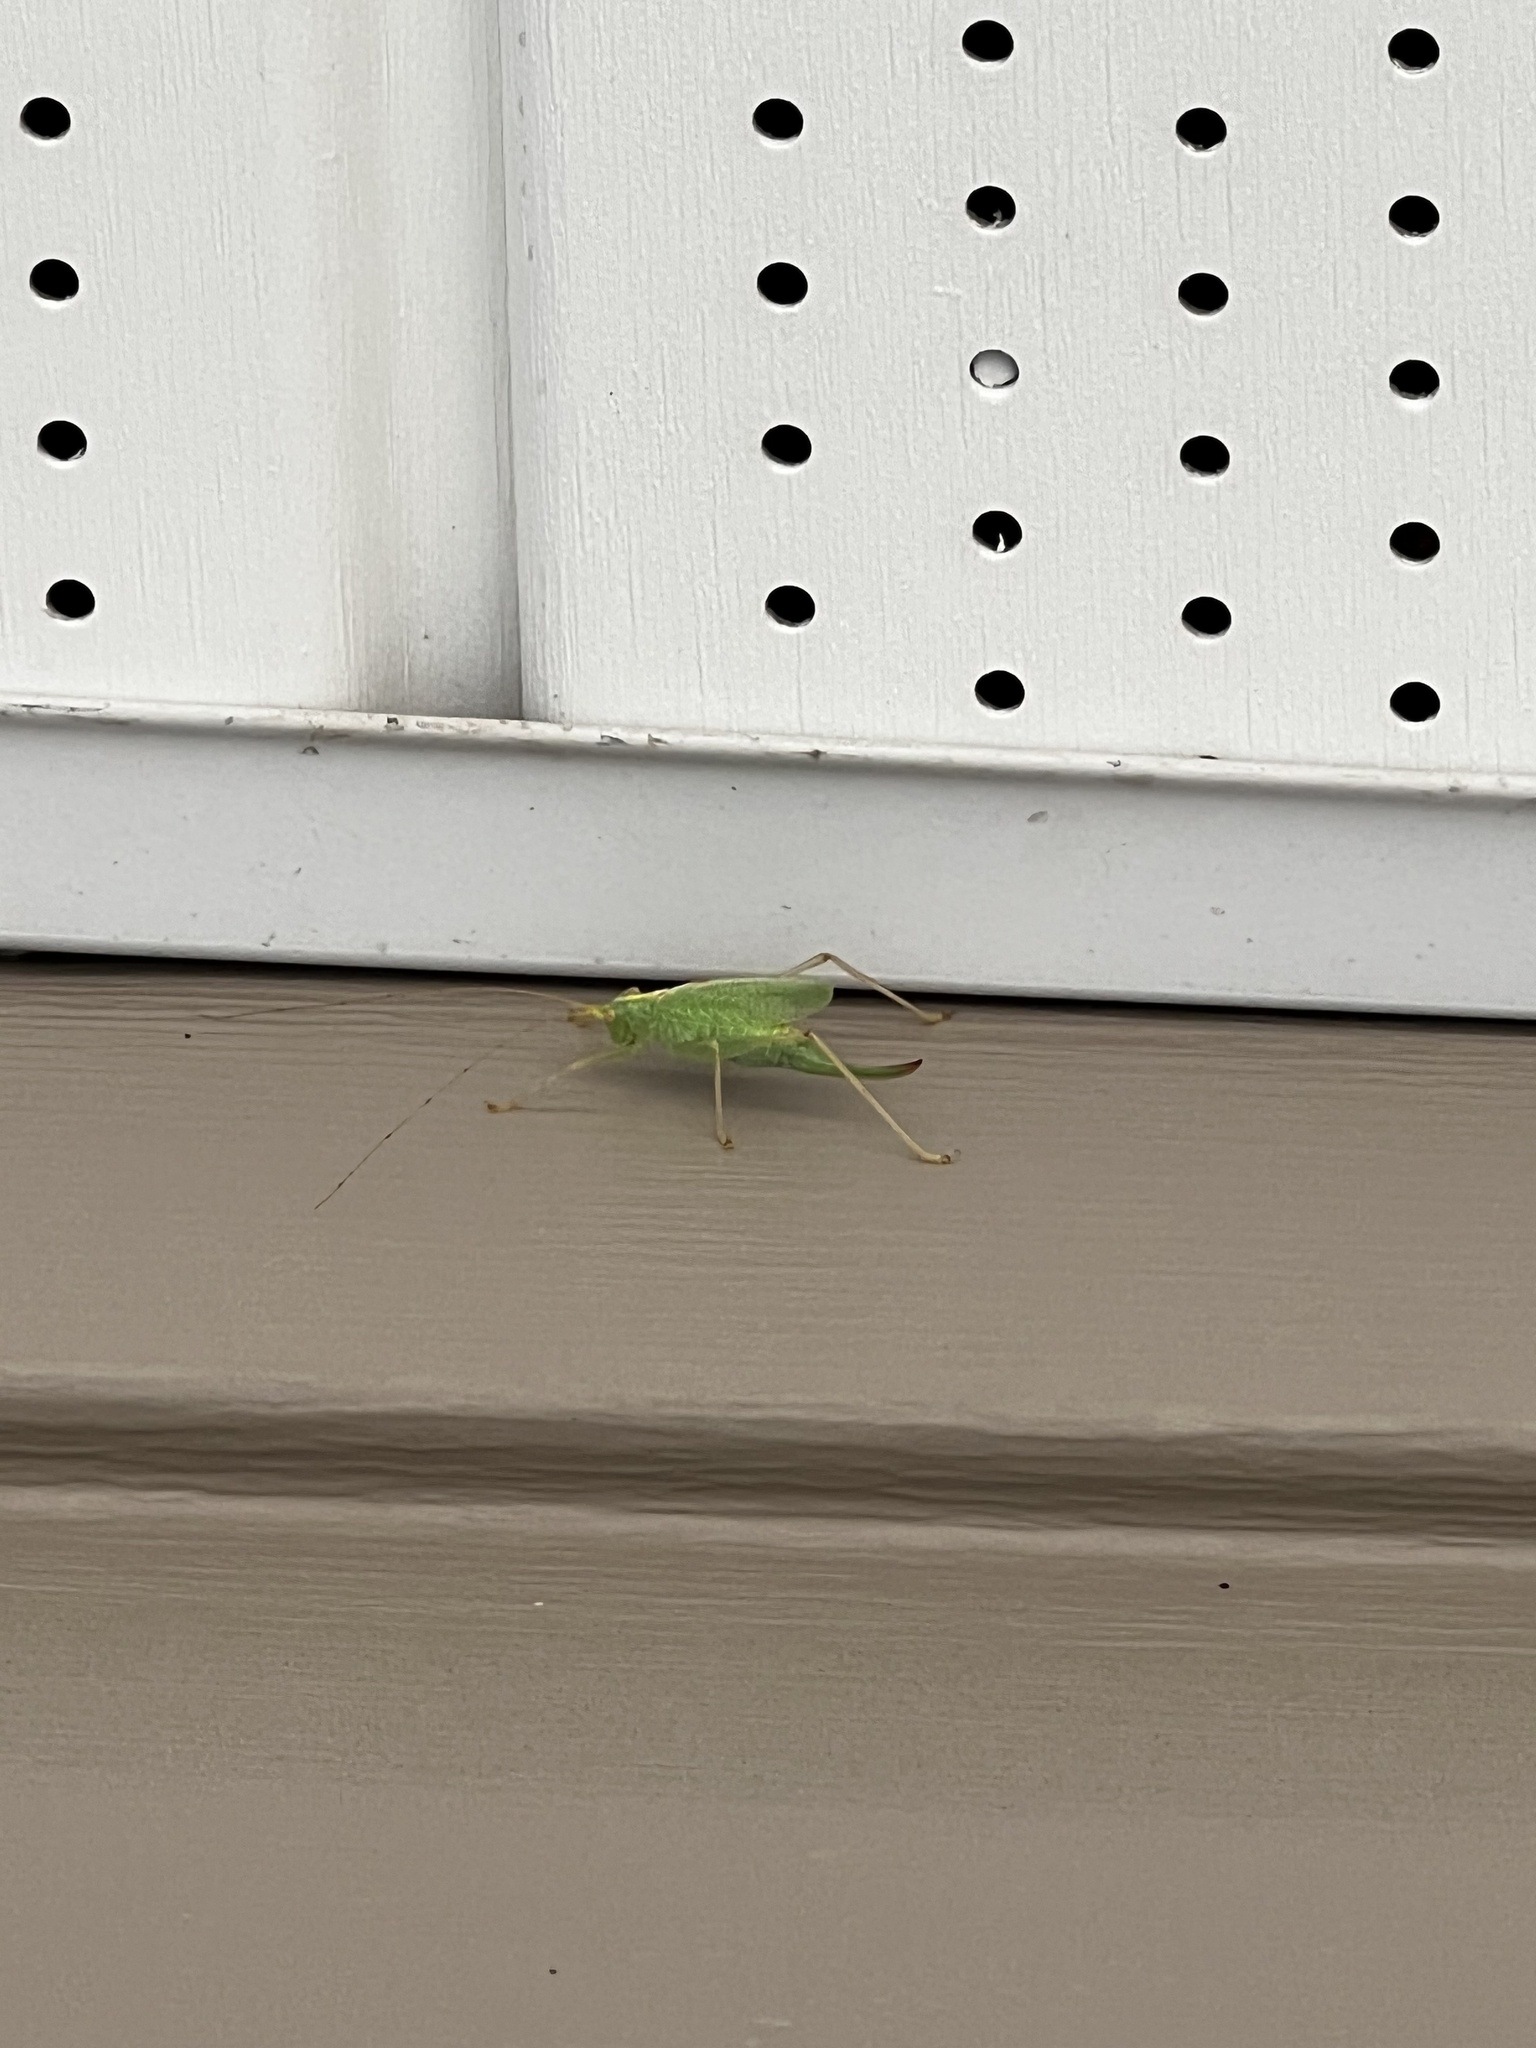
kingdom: Animalia
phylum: Arthropoda
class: Insecta
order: Orthoptera
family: Tettigoniidae
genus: Meconema
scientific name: Meconema thalassinum
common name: Oak bush-cricket
